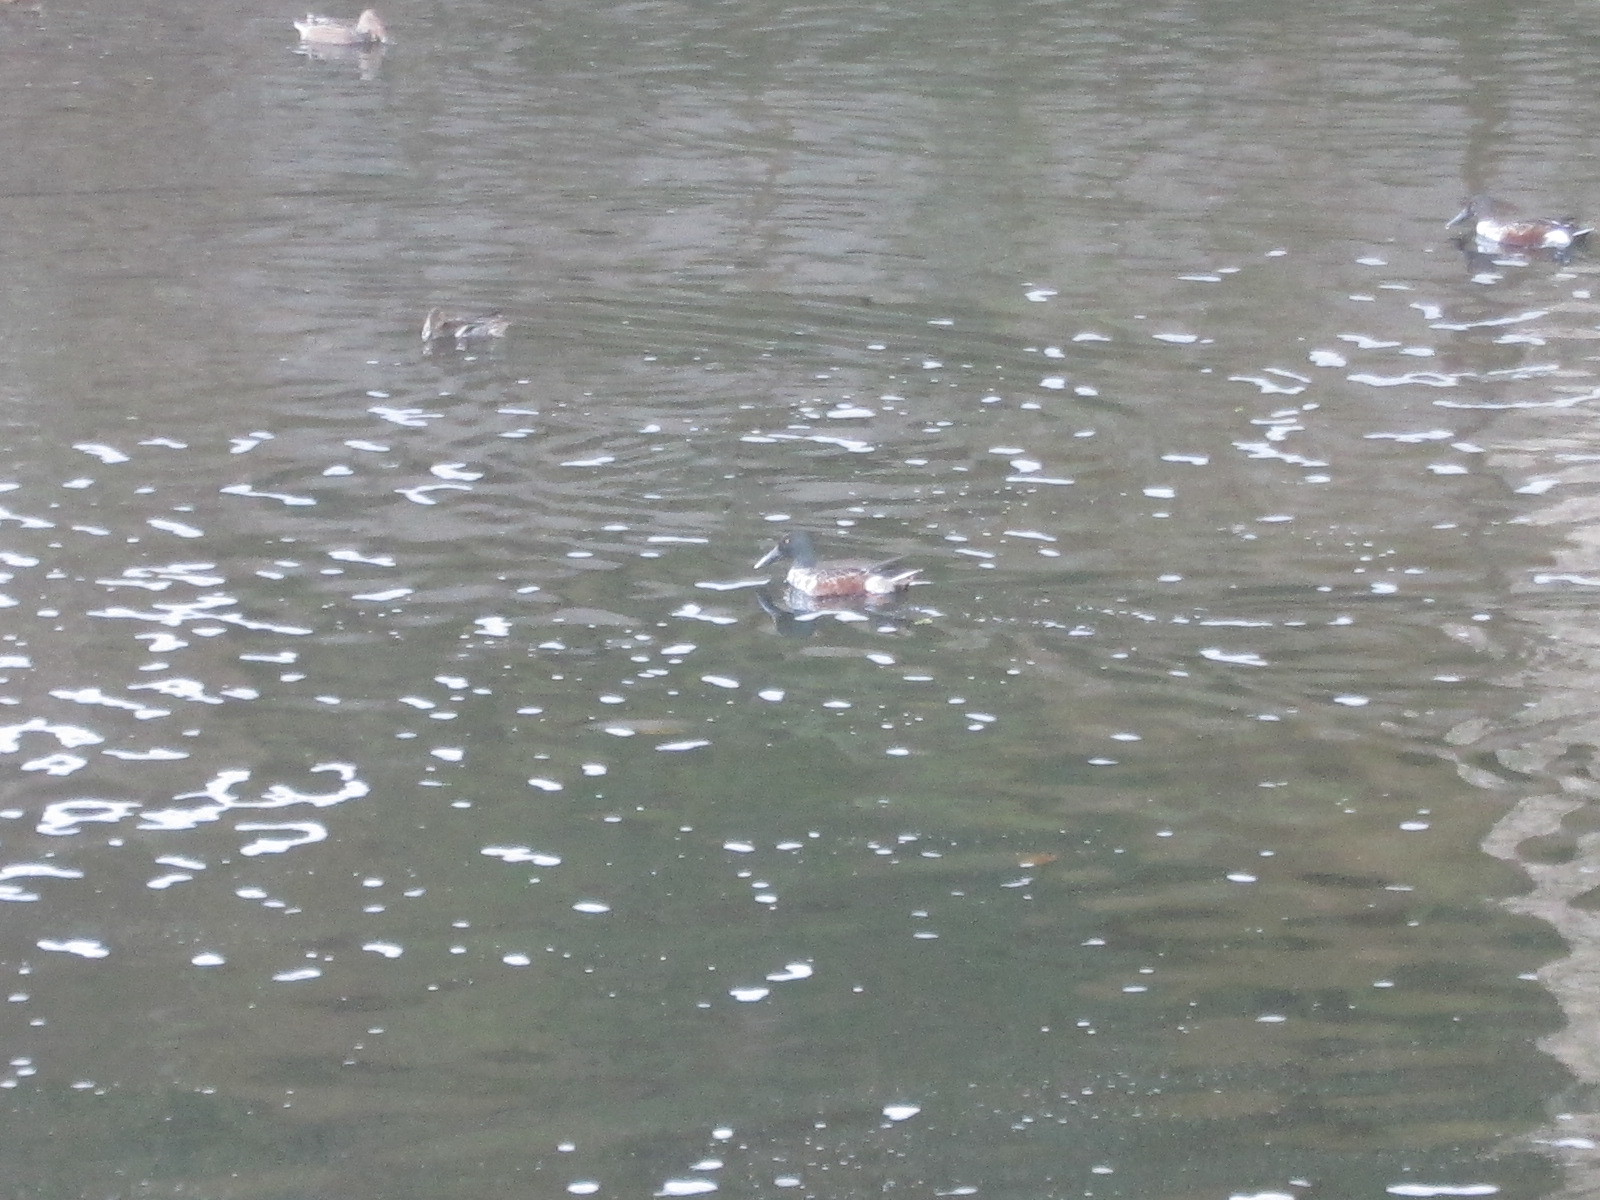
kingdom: Animalia
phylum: Chordata
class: Aves
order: Anseriformes
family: Anatidae
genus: Spatula
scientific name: Spatula clypeata
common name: Northern shoveler
